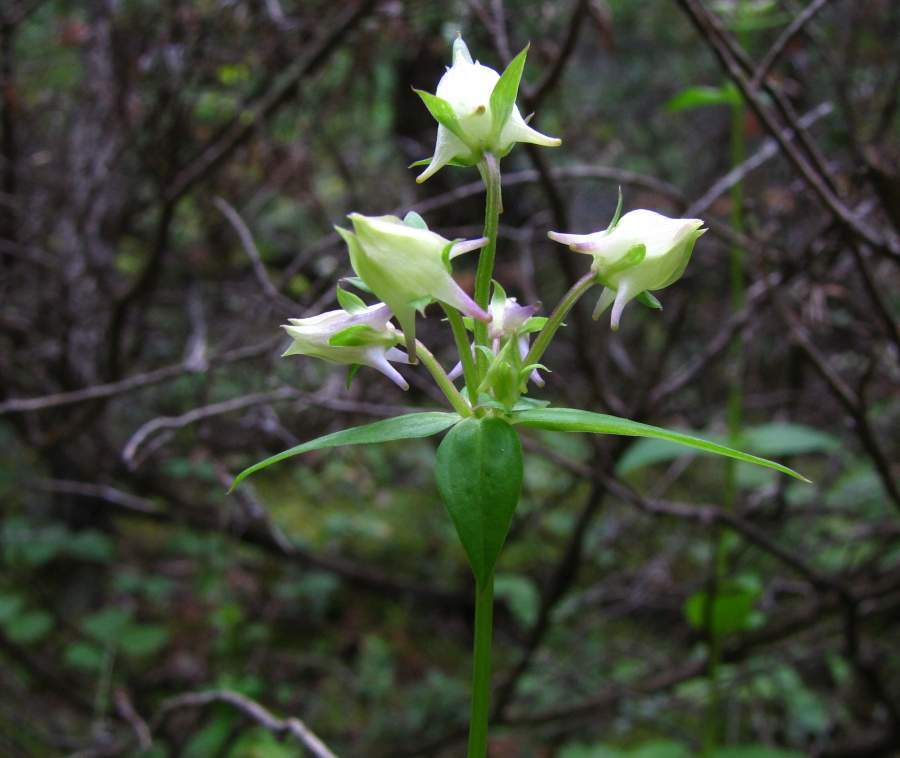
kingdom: Plantae
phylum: Tracheophyta
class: Magnoliopsida
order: Gentianales
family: Gentianaceae
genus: Halenia
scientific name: Halenia deflexa
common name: American spurred gentian
